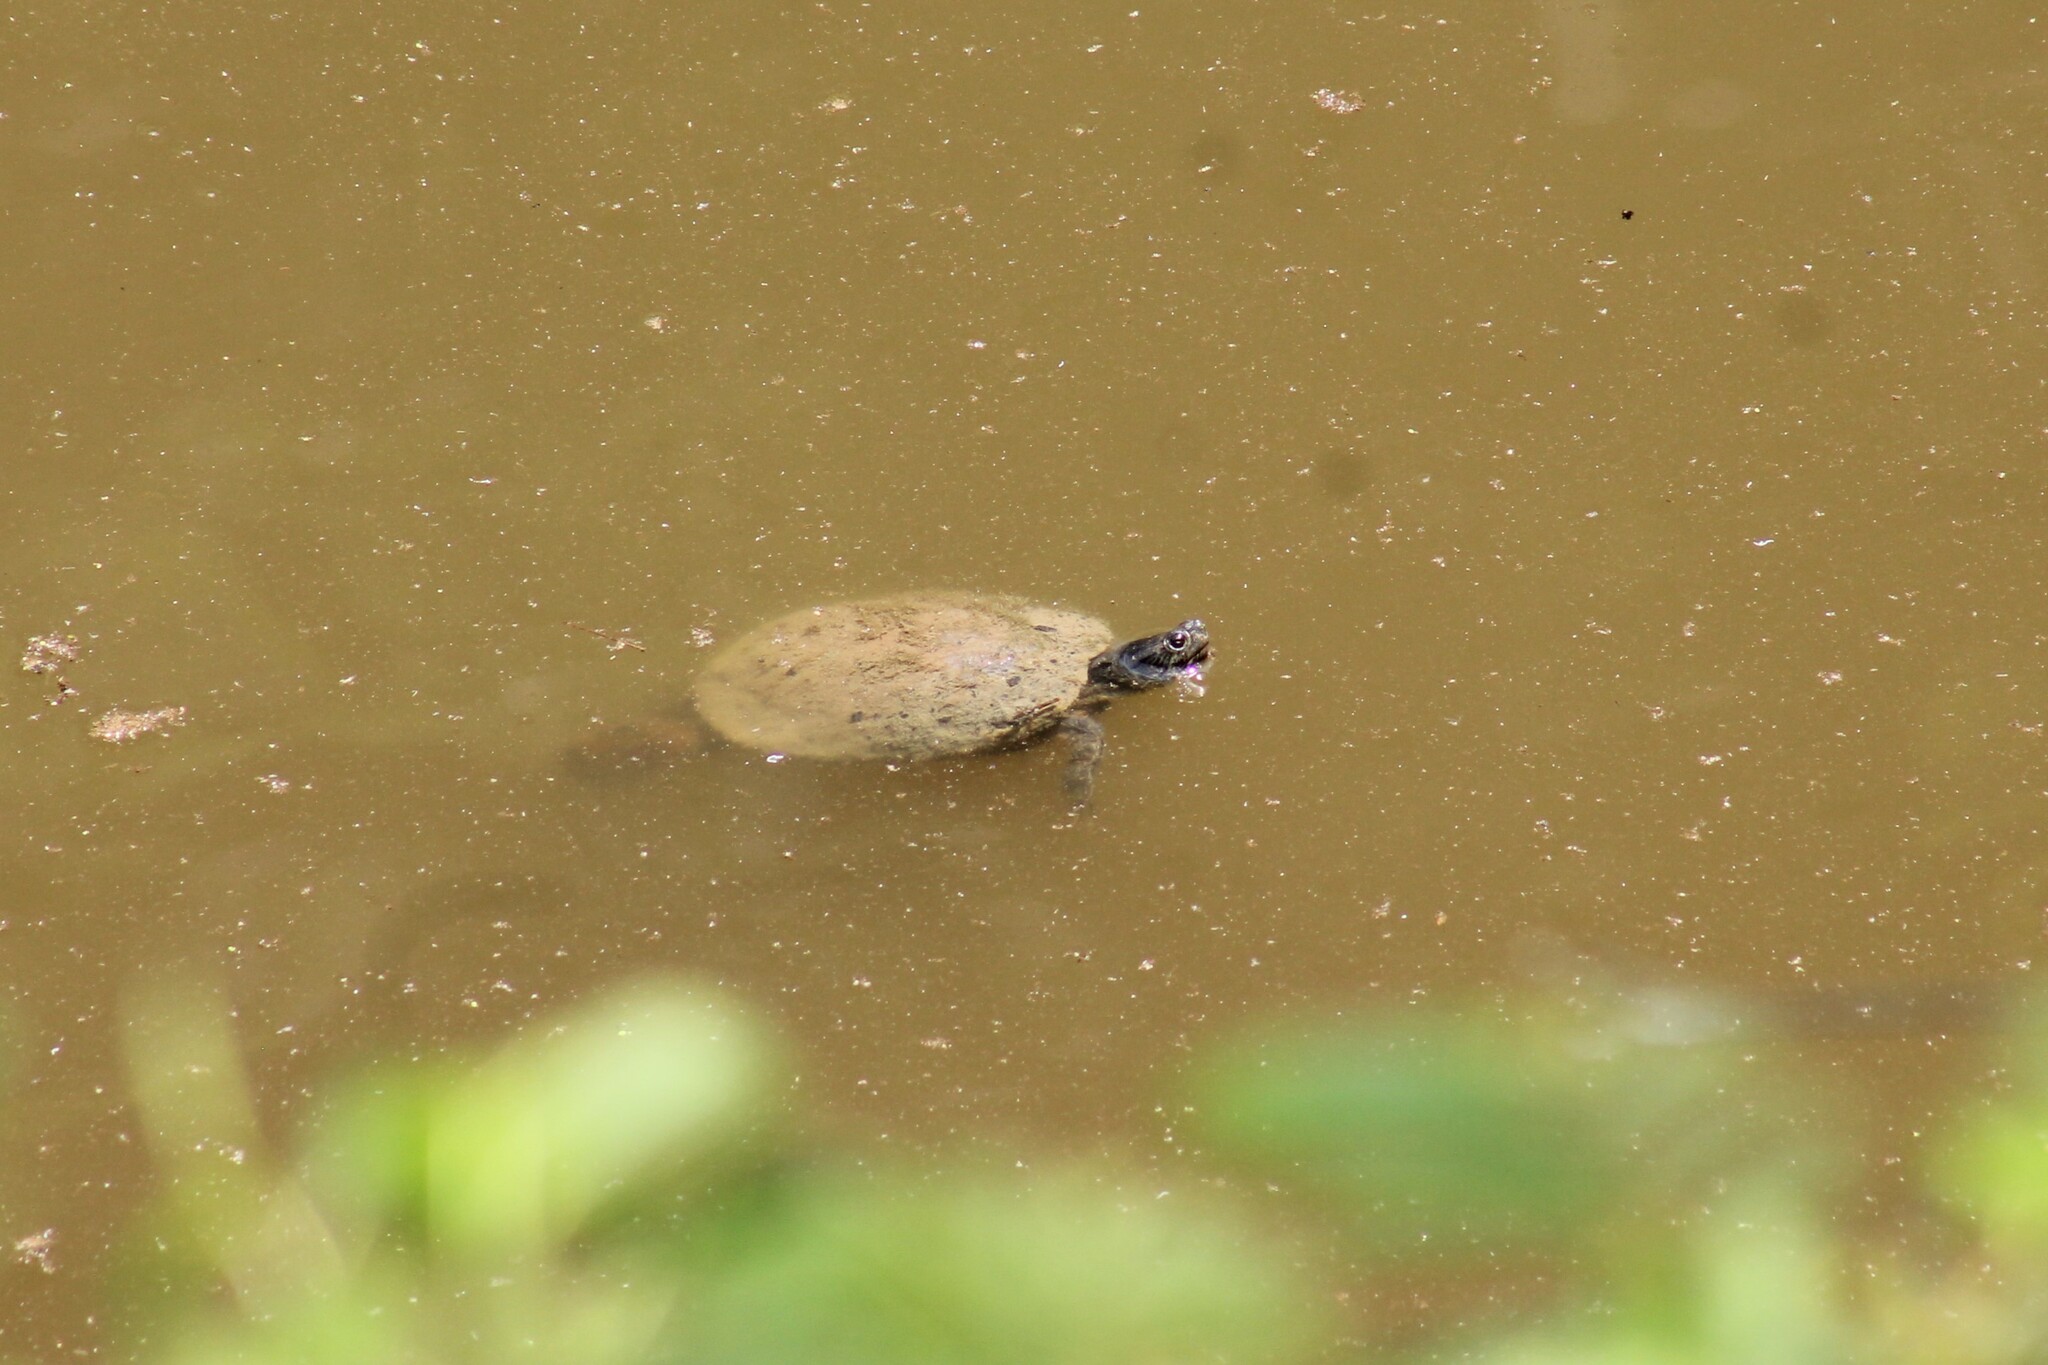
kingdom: Animalia
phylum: Chordata
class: Testudines
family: Emydidae
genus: Trachemys
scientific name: Trachemys scripta
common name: Slider
